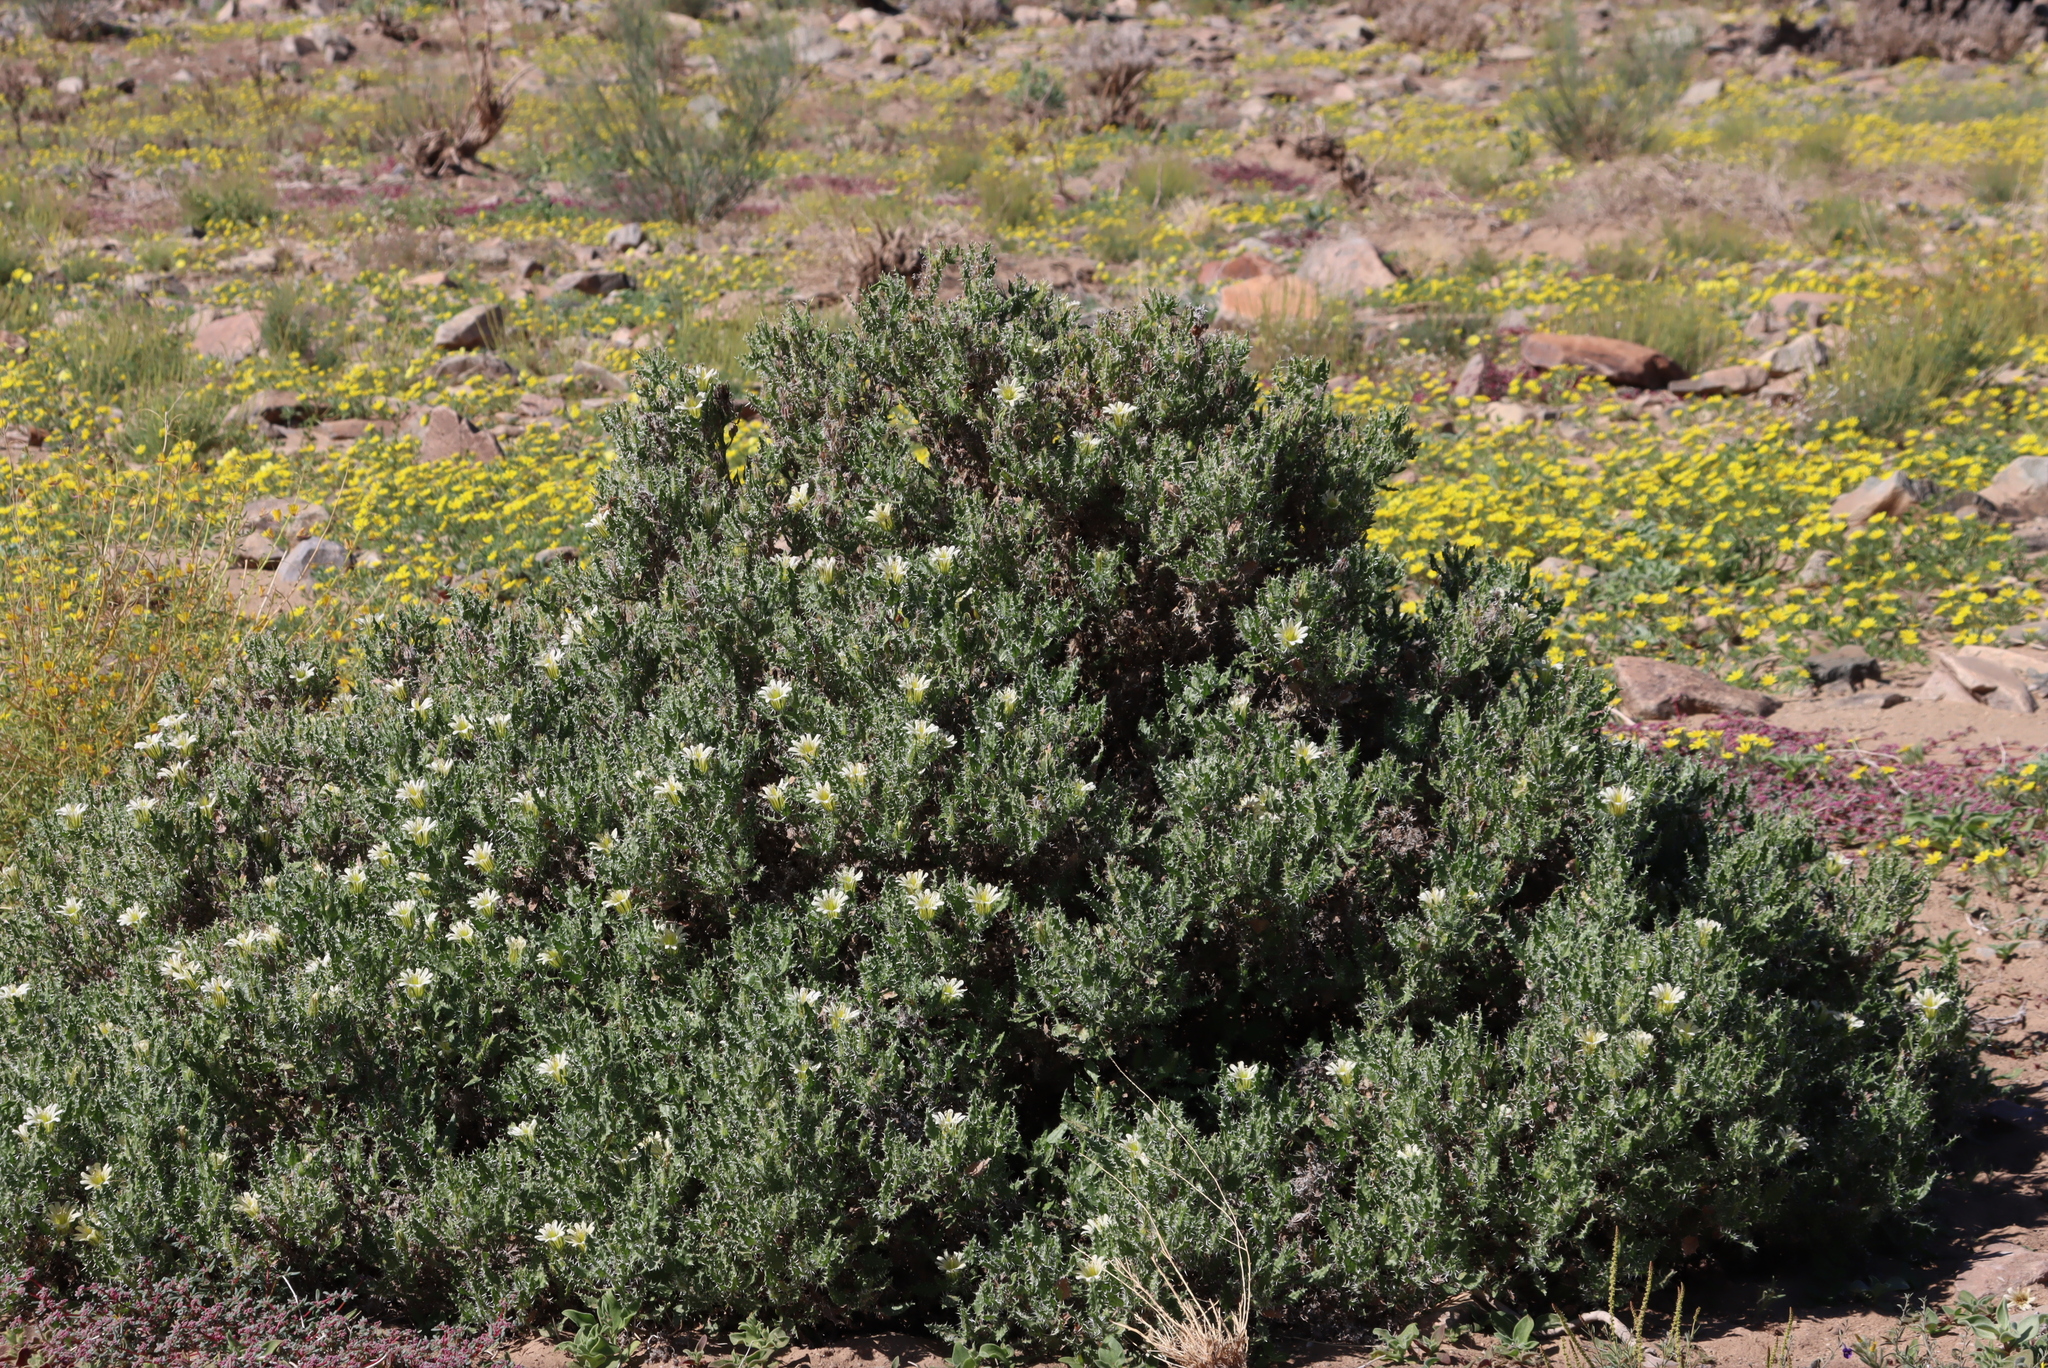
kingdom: Plantae
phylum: Tracheophyta
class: Magnoliopsida
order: Boraginales
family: Boraginaceae
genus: Codon
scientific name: Codon royenii
